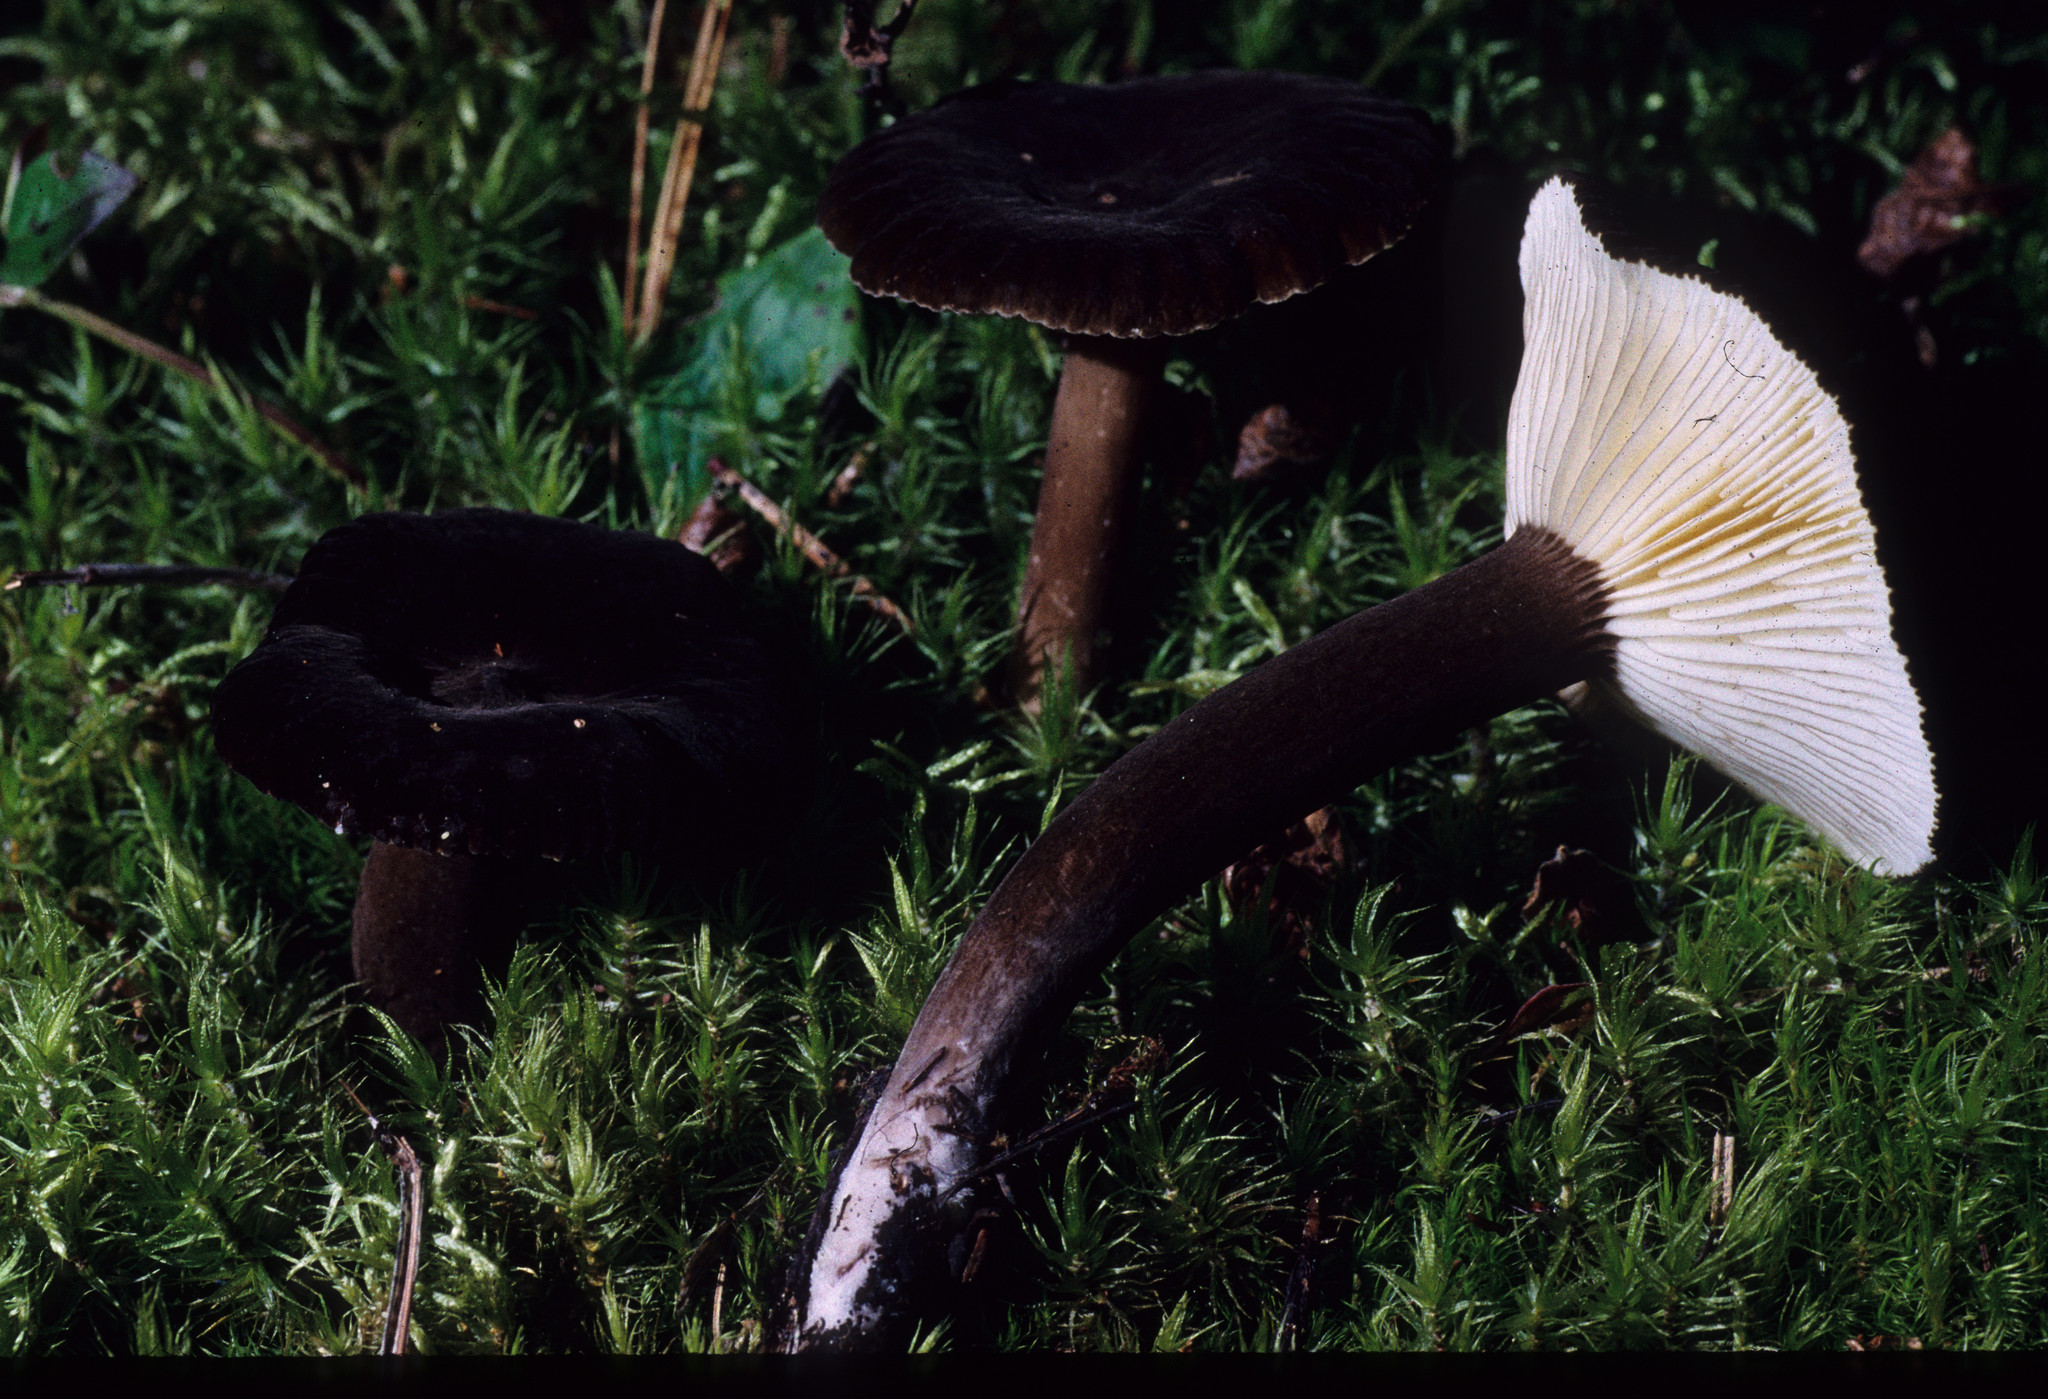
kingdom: Fungi
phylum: Basidiomycota
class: Agaricomycetes
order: Russulales
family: Russulaceae
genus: Lactarius
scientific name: Lactarius lignyotellus
